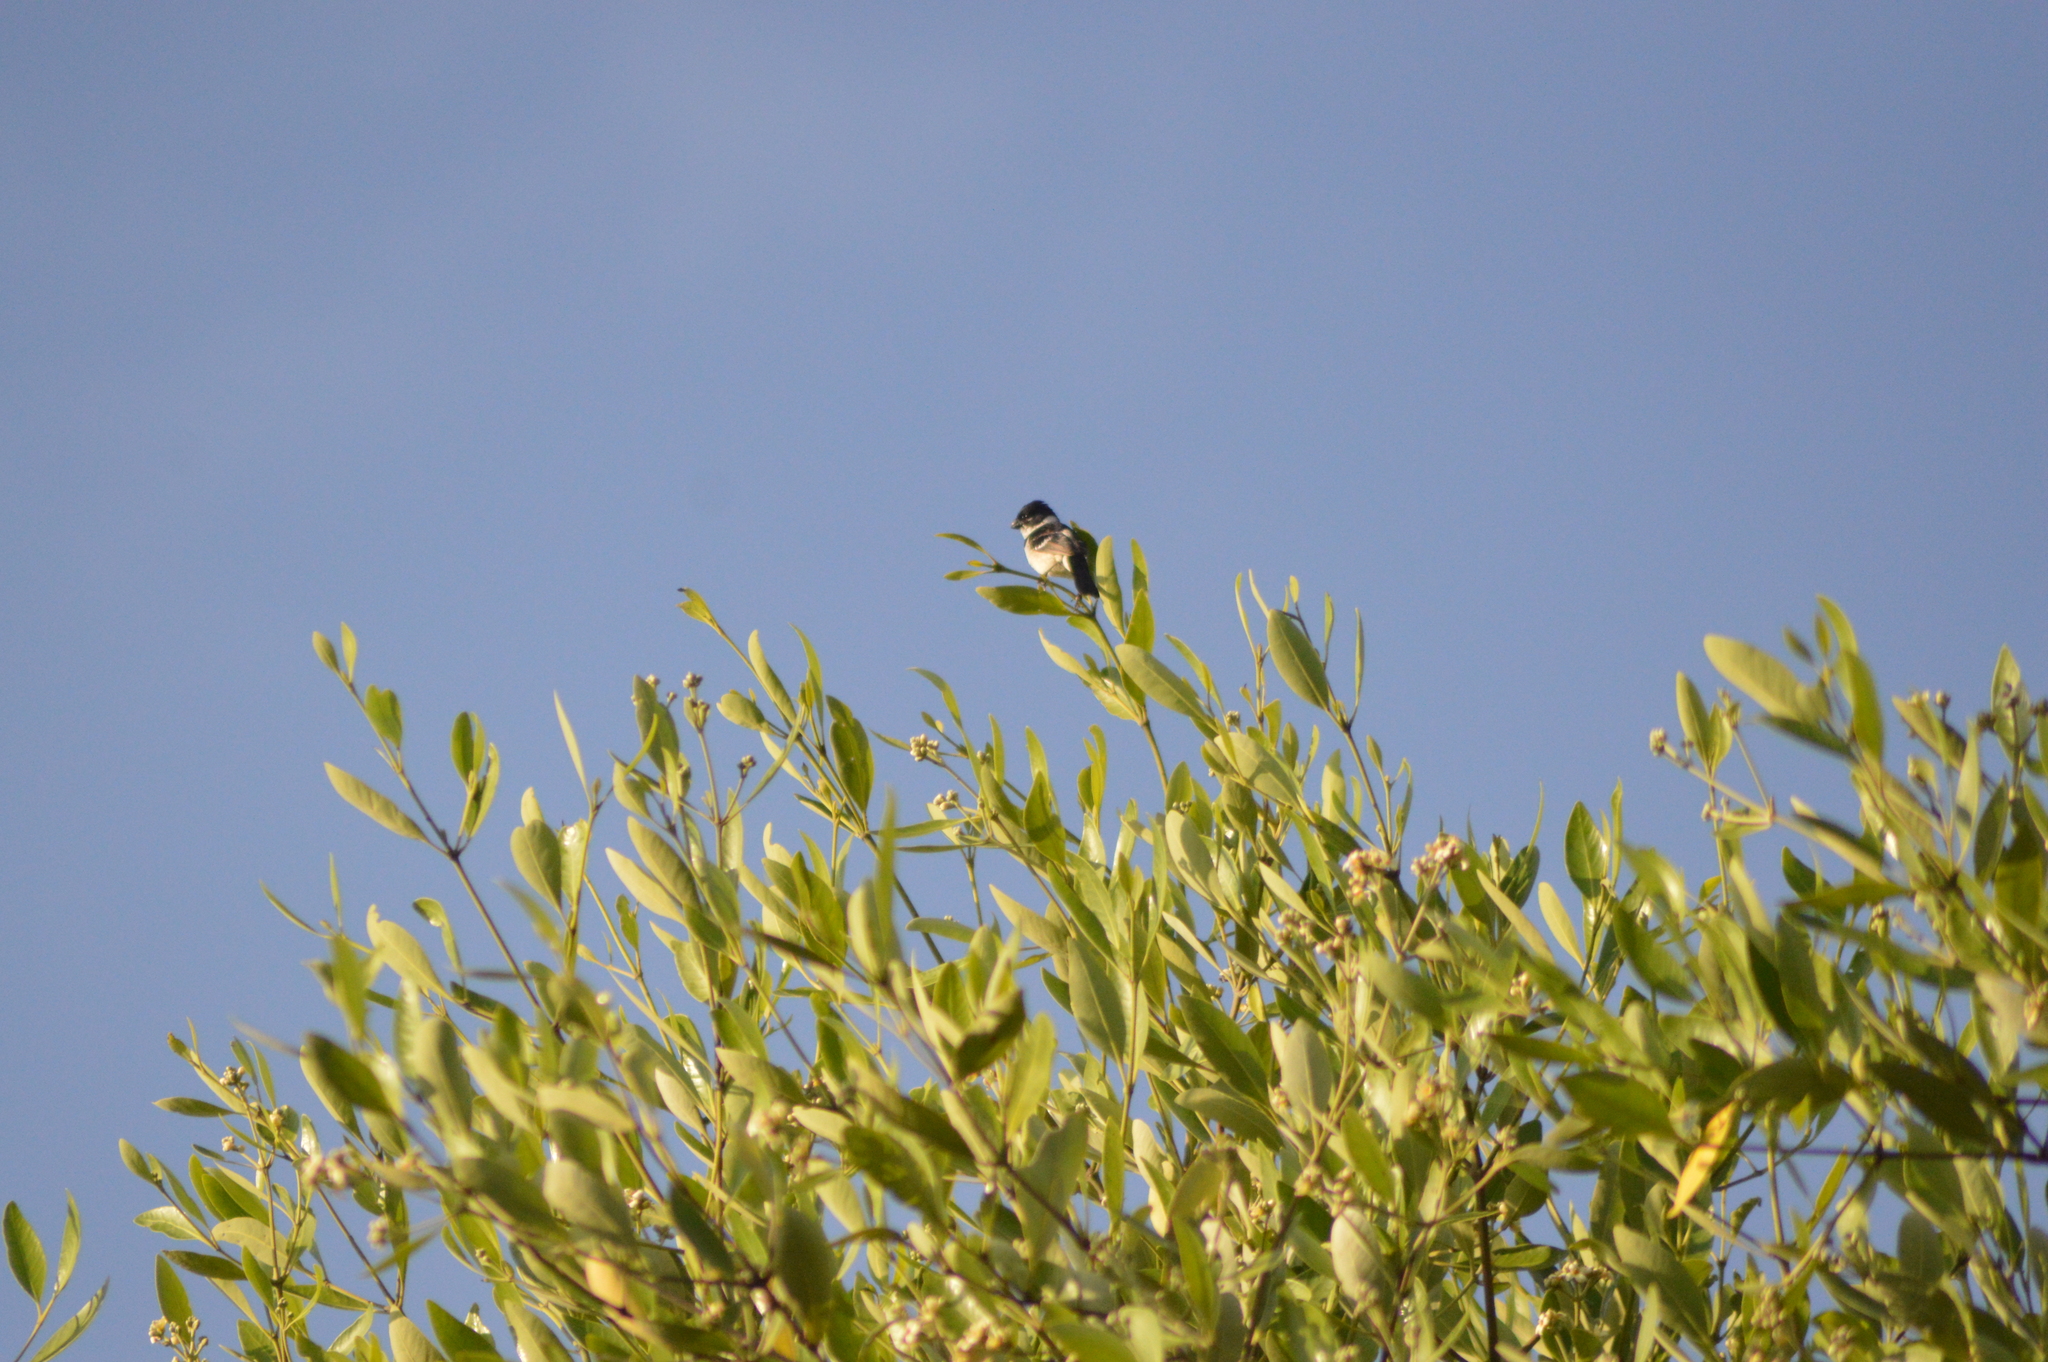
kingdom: Animalia
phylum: Chordata
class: Aves
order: Passeriformes
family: Thraupidae
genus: Sporophila
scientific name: Sporophila morelleti
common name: Morelet's seedeater
